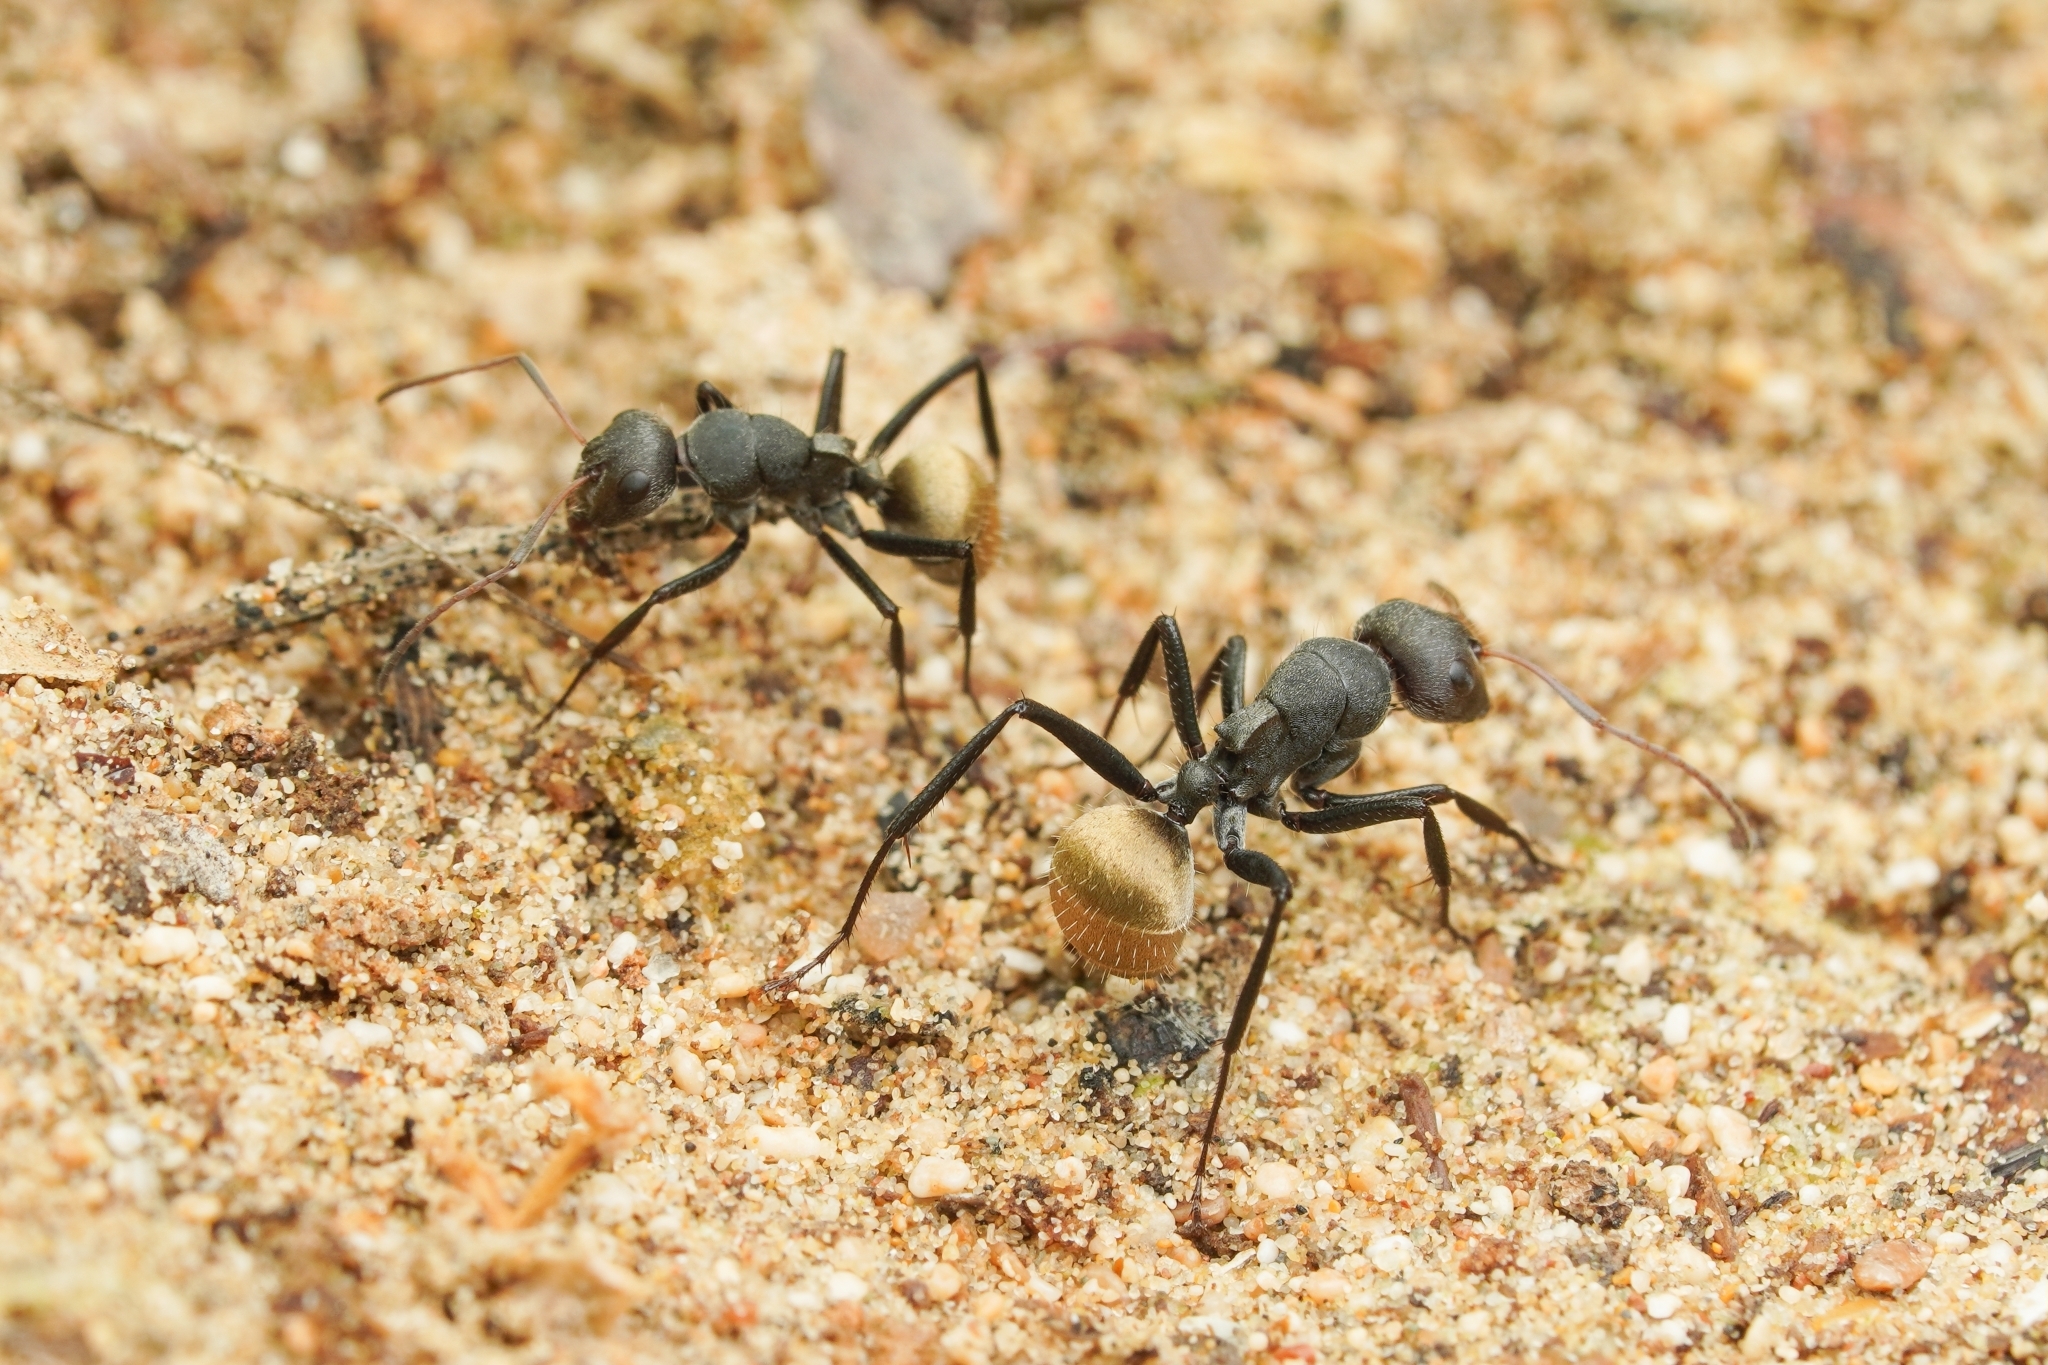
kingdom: Animalia
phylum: Arthropoda
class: Insecta
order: Hymenoptera
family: Formicidae
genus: Camponotus
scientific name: Camponotus sericeus
